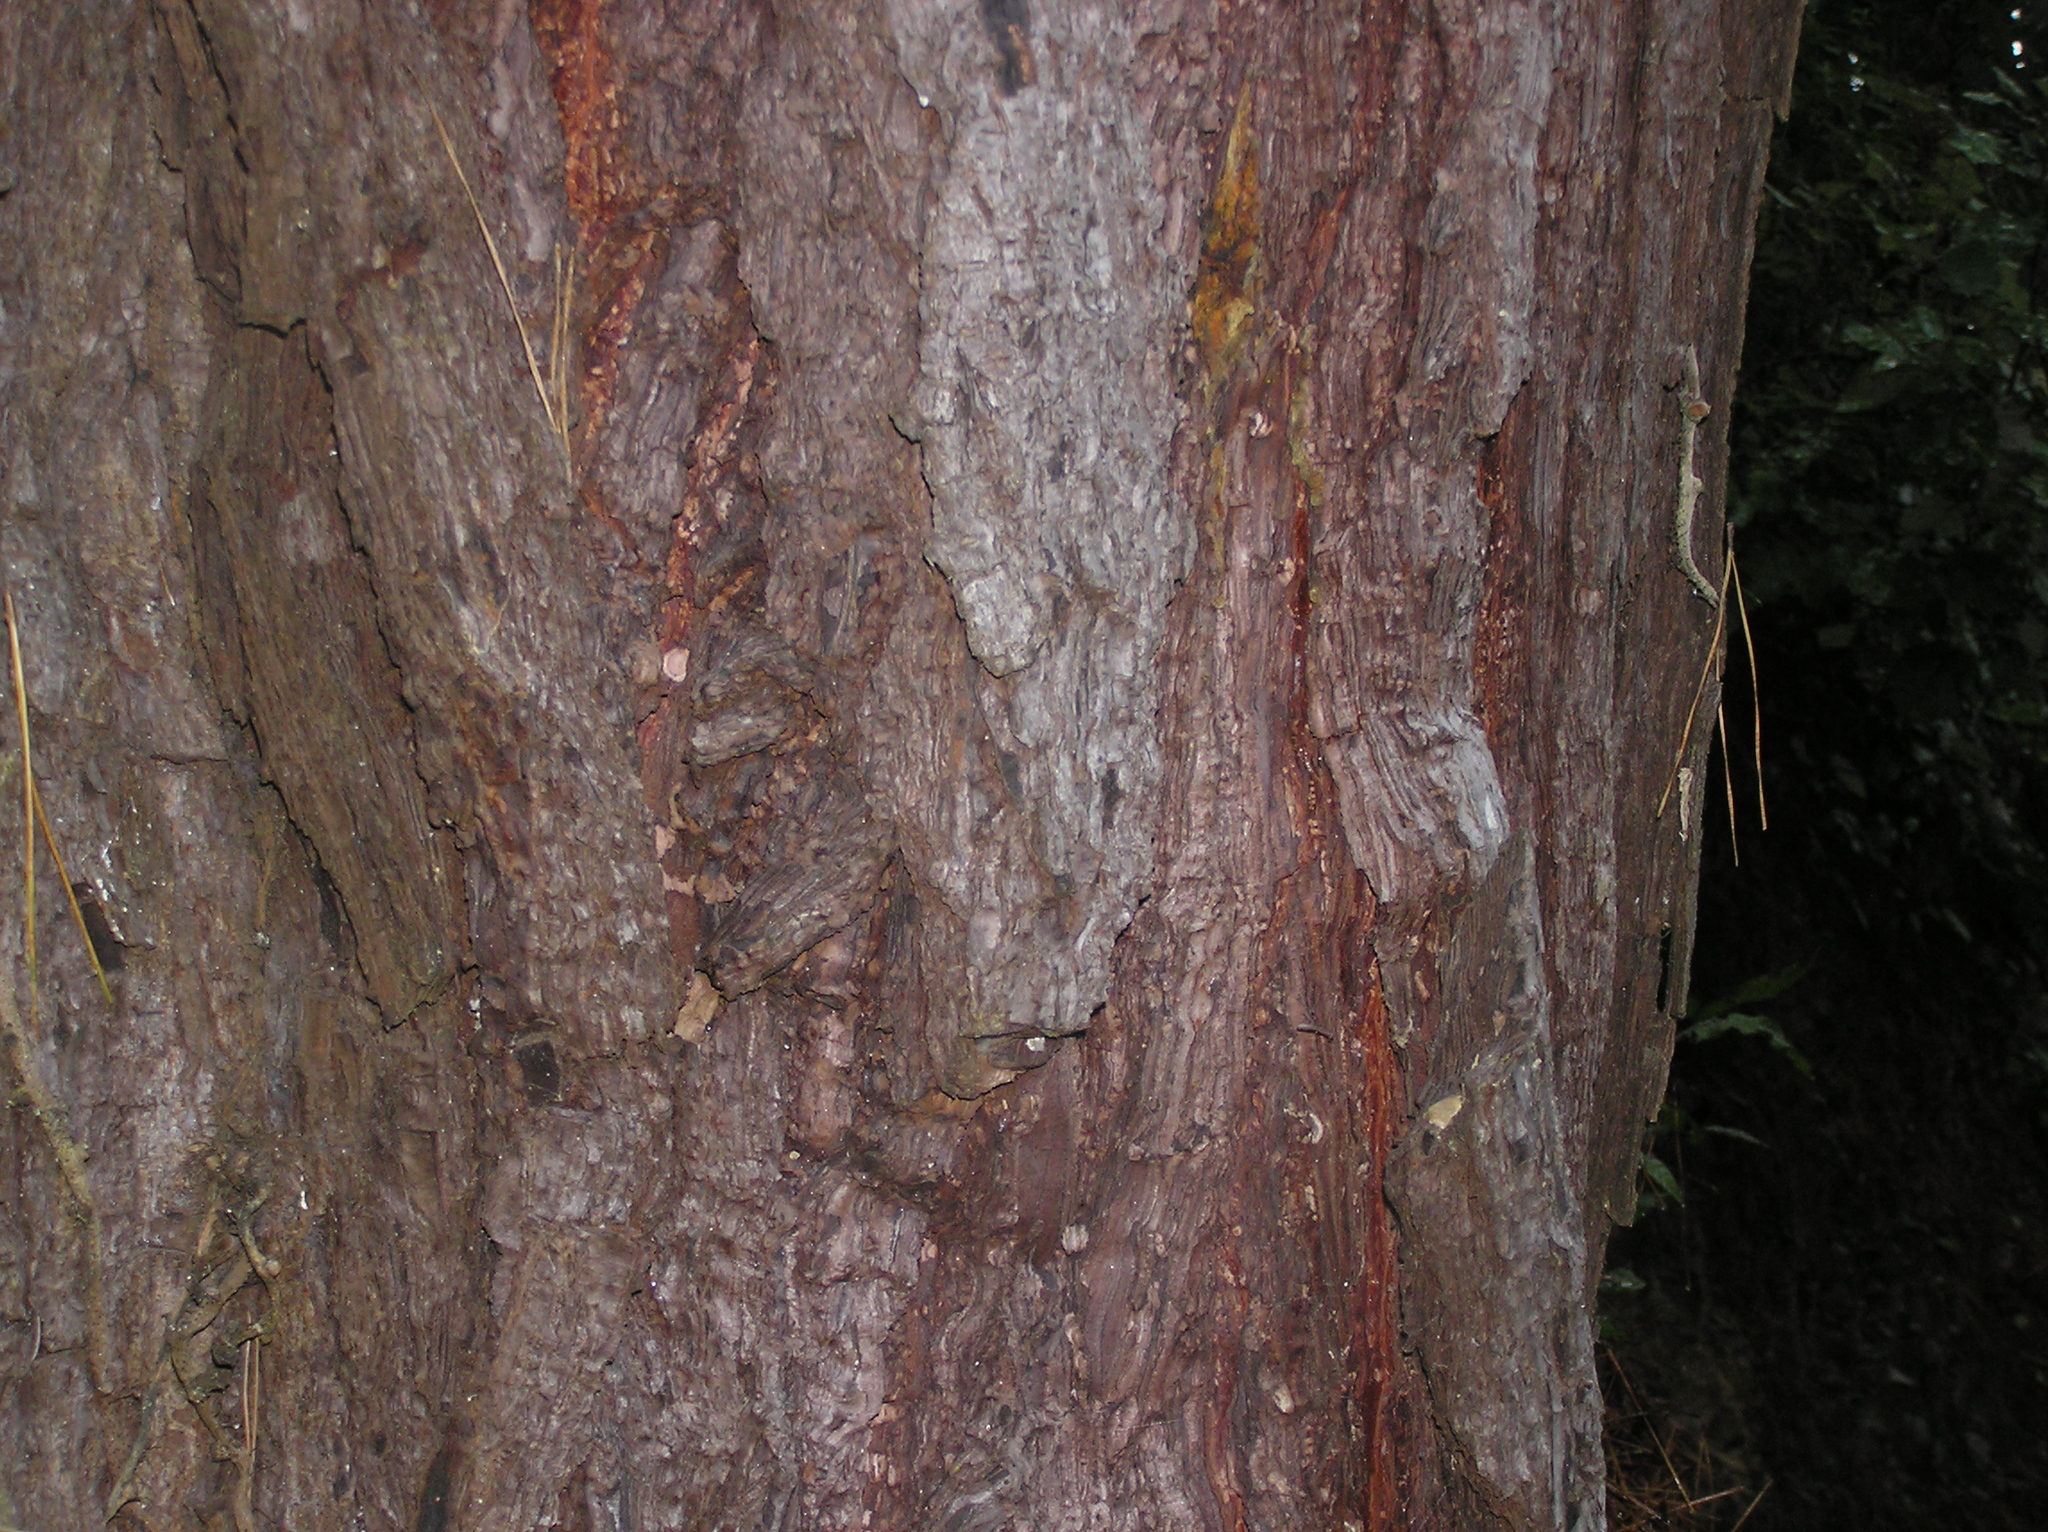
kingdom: Plantae
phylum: Tracheophyta
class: Pinopsida
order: Pinales
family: Pinaceae
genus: Pinus
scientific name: Pinus radiata
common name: Monterey pine
